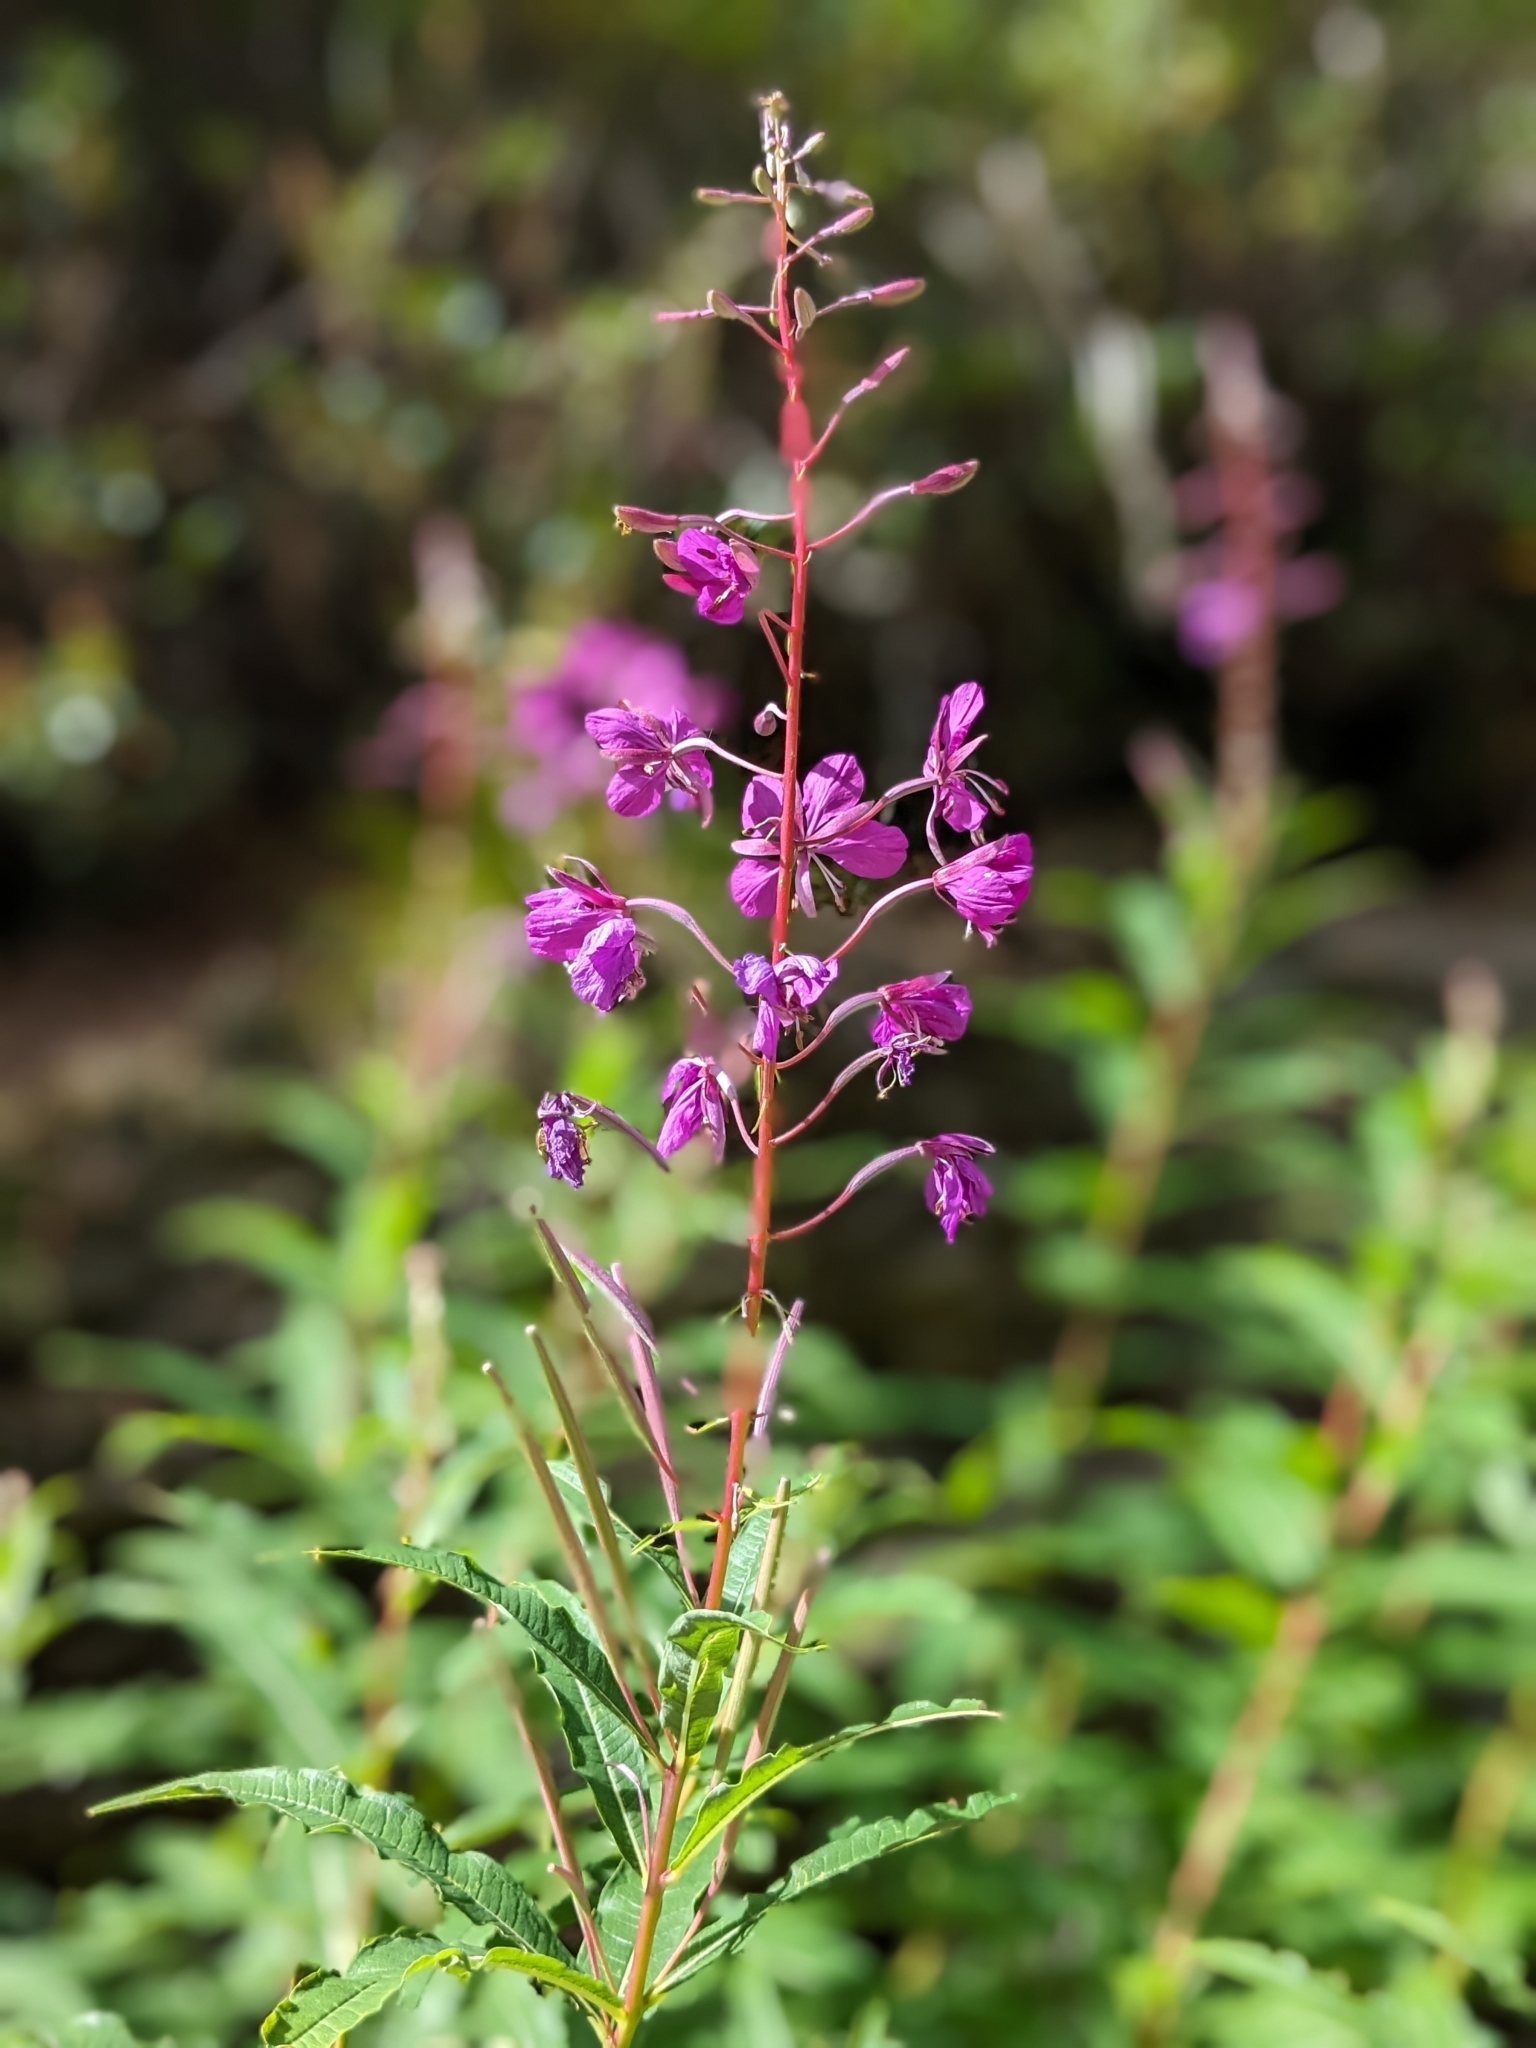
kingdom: Plantae
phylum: Tracheophyta
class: Magnoliopsida
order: Myrtales
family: Onagraceae
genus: Chamaenerion
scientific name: Chamaenerion angustifolium
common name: Fireweed
